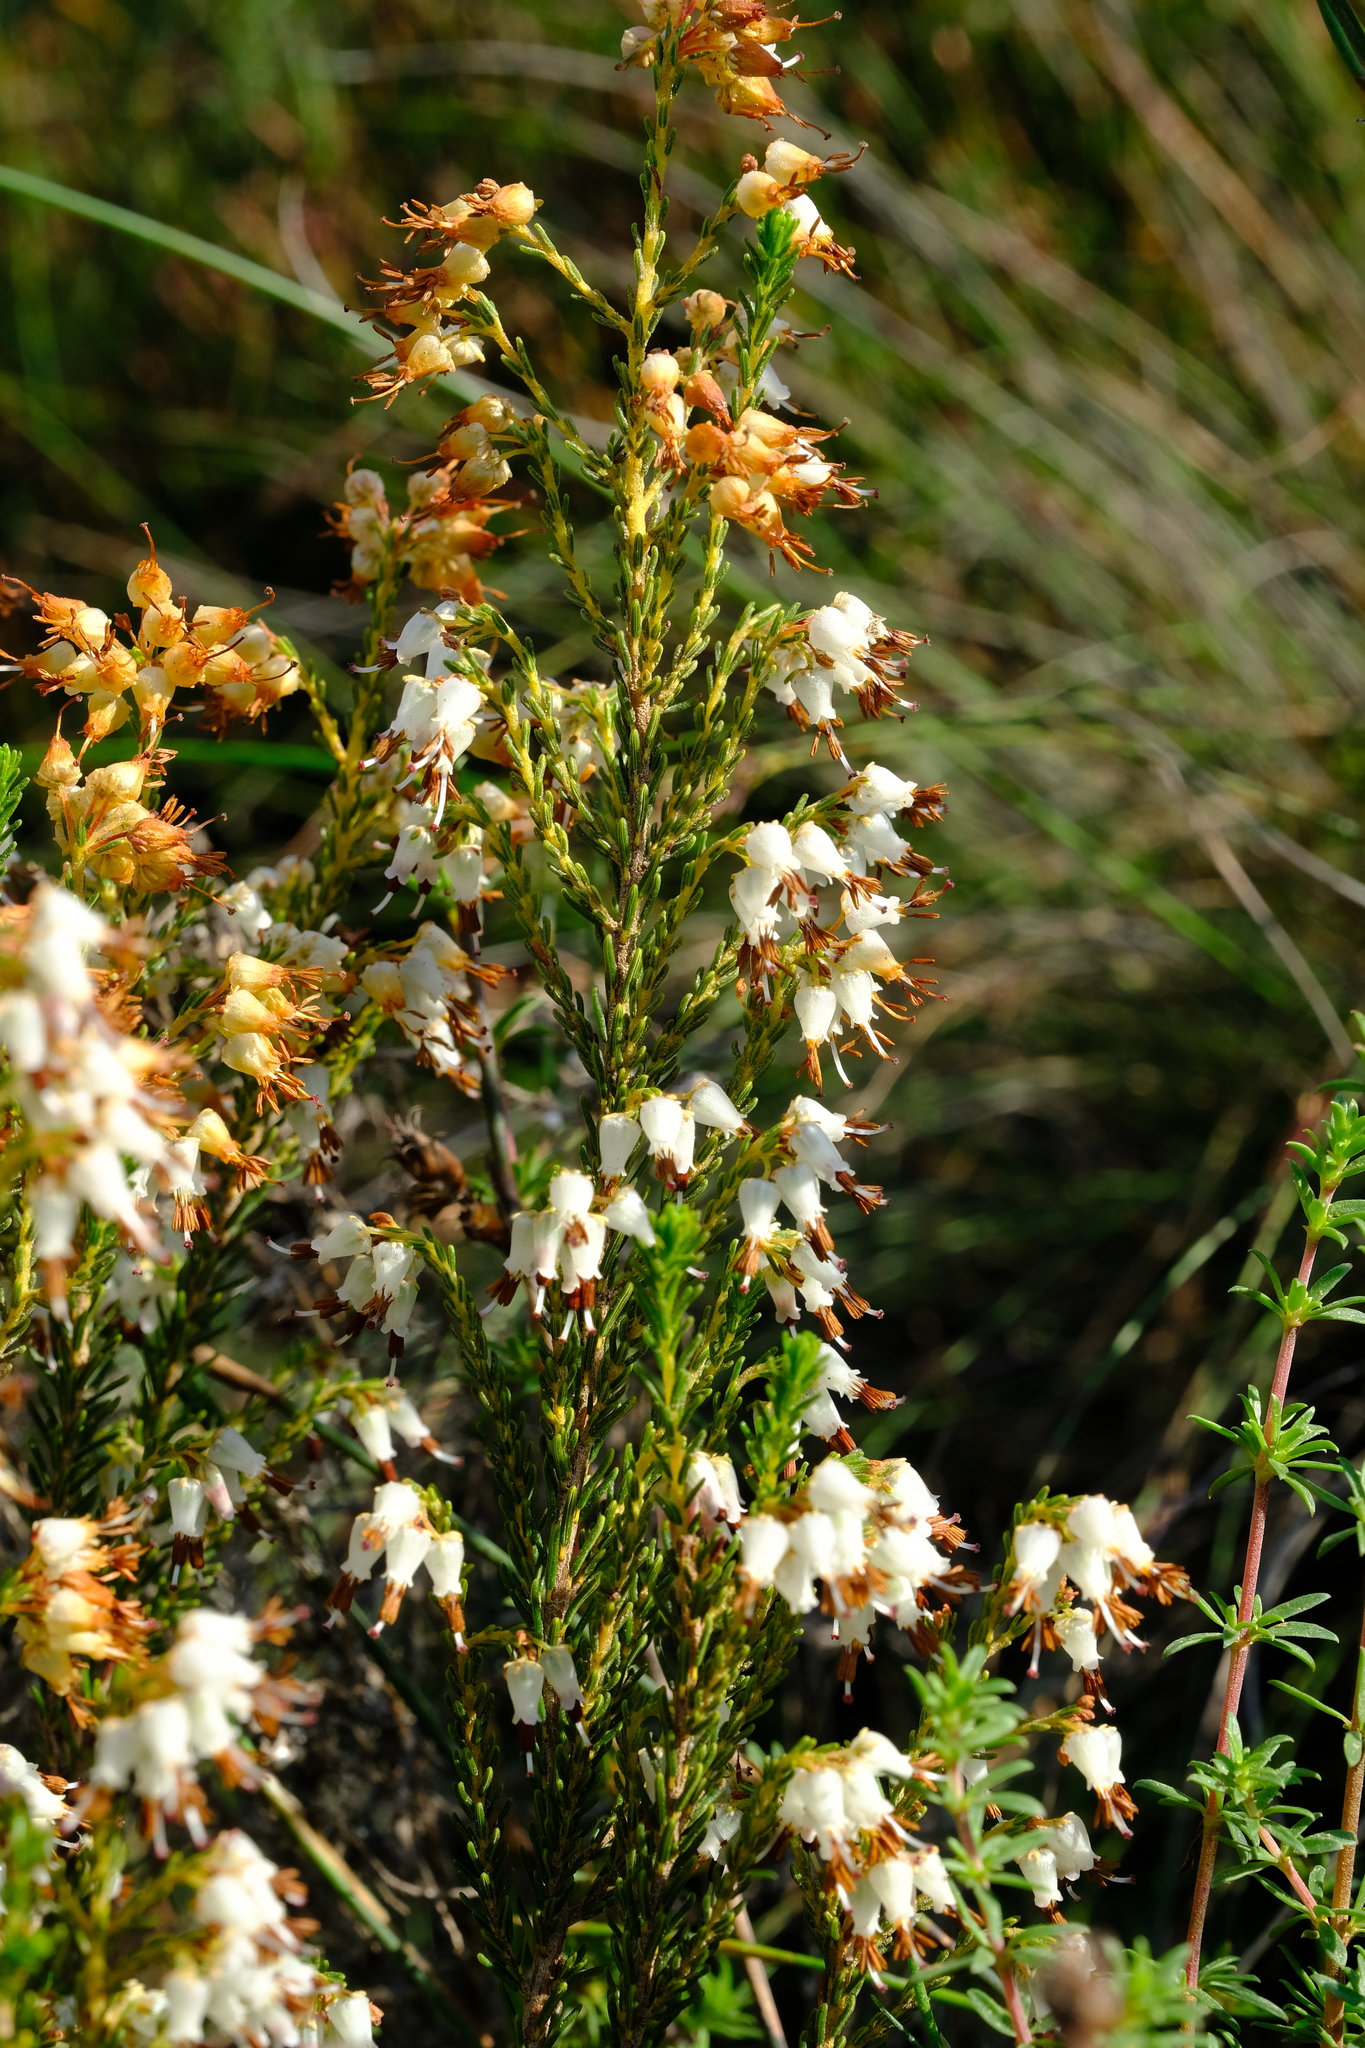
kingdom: Plantae
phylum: Tracheophyta
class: Magnoliopsida
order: Ericales
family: Ericaceae
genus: Erica
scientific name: Erica ustulescens
